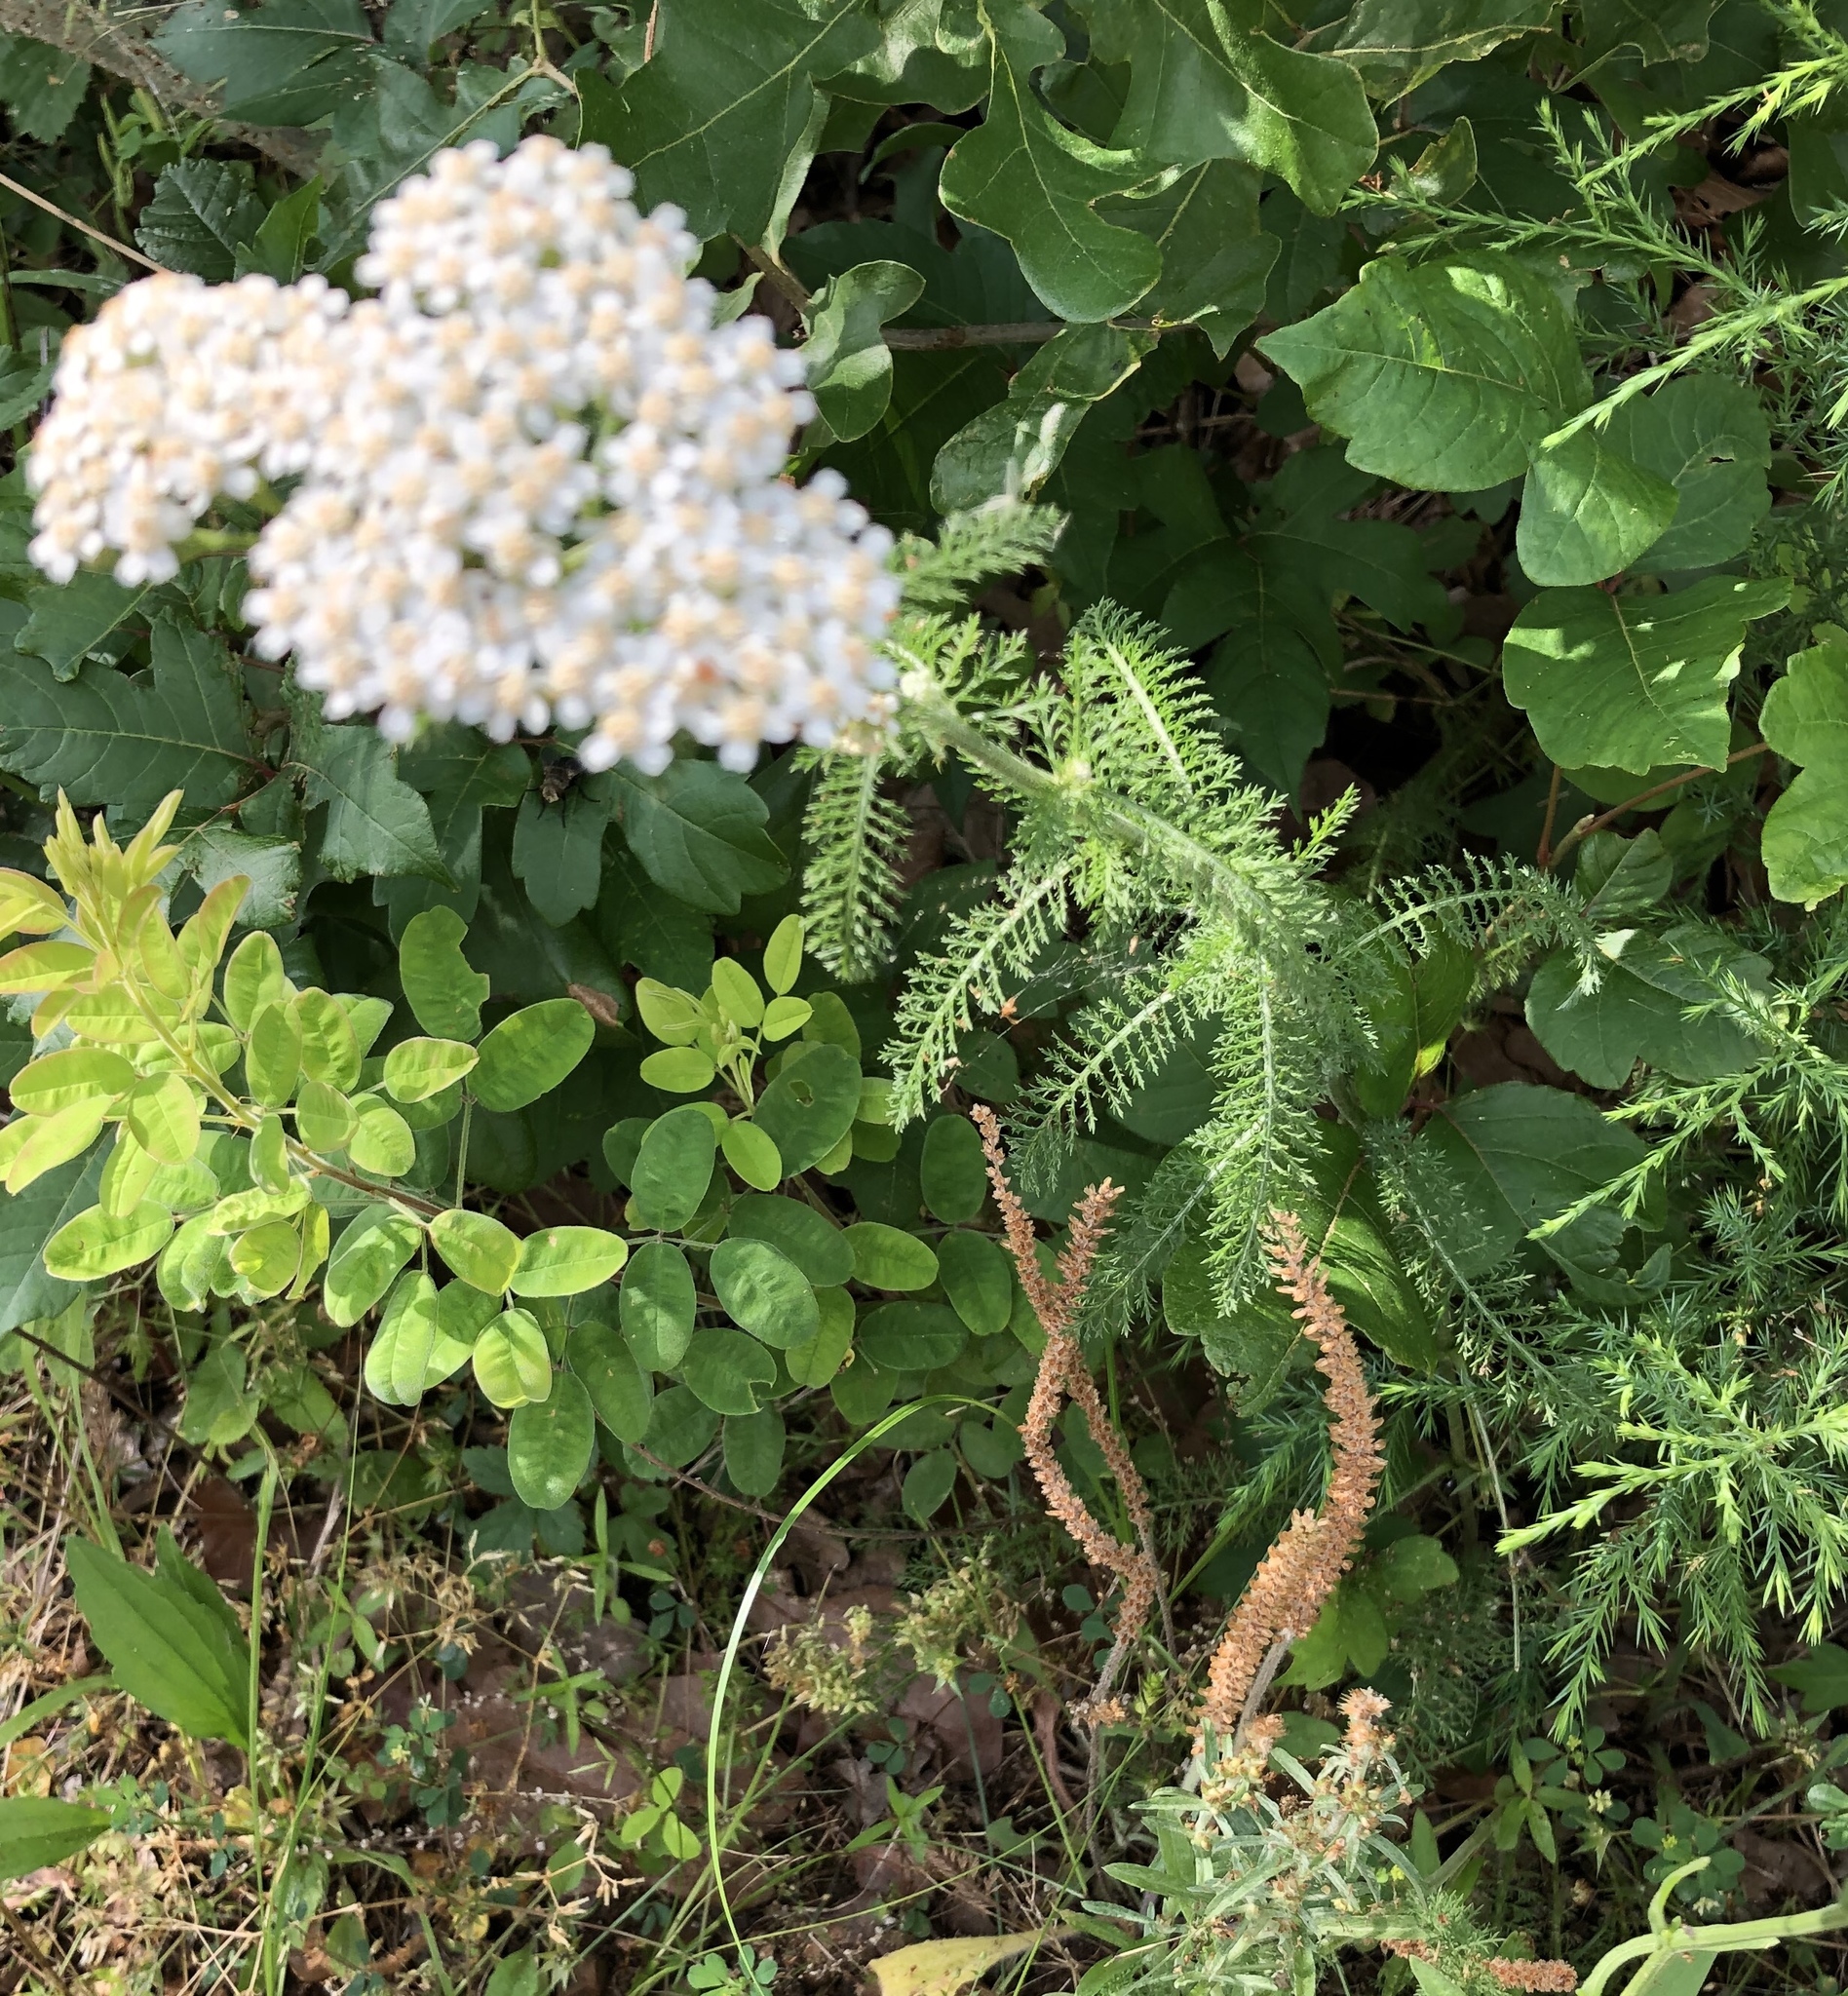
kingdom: Plantae
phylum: Tracheophyta
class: Magnoliopsida
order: Asterales
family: Asteraceae
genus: Achillea
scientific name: Achillea millefolium
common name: Yarrow
